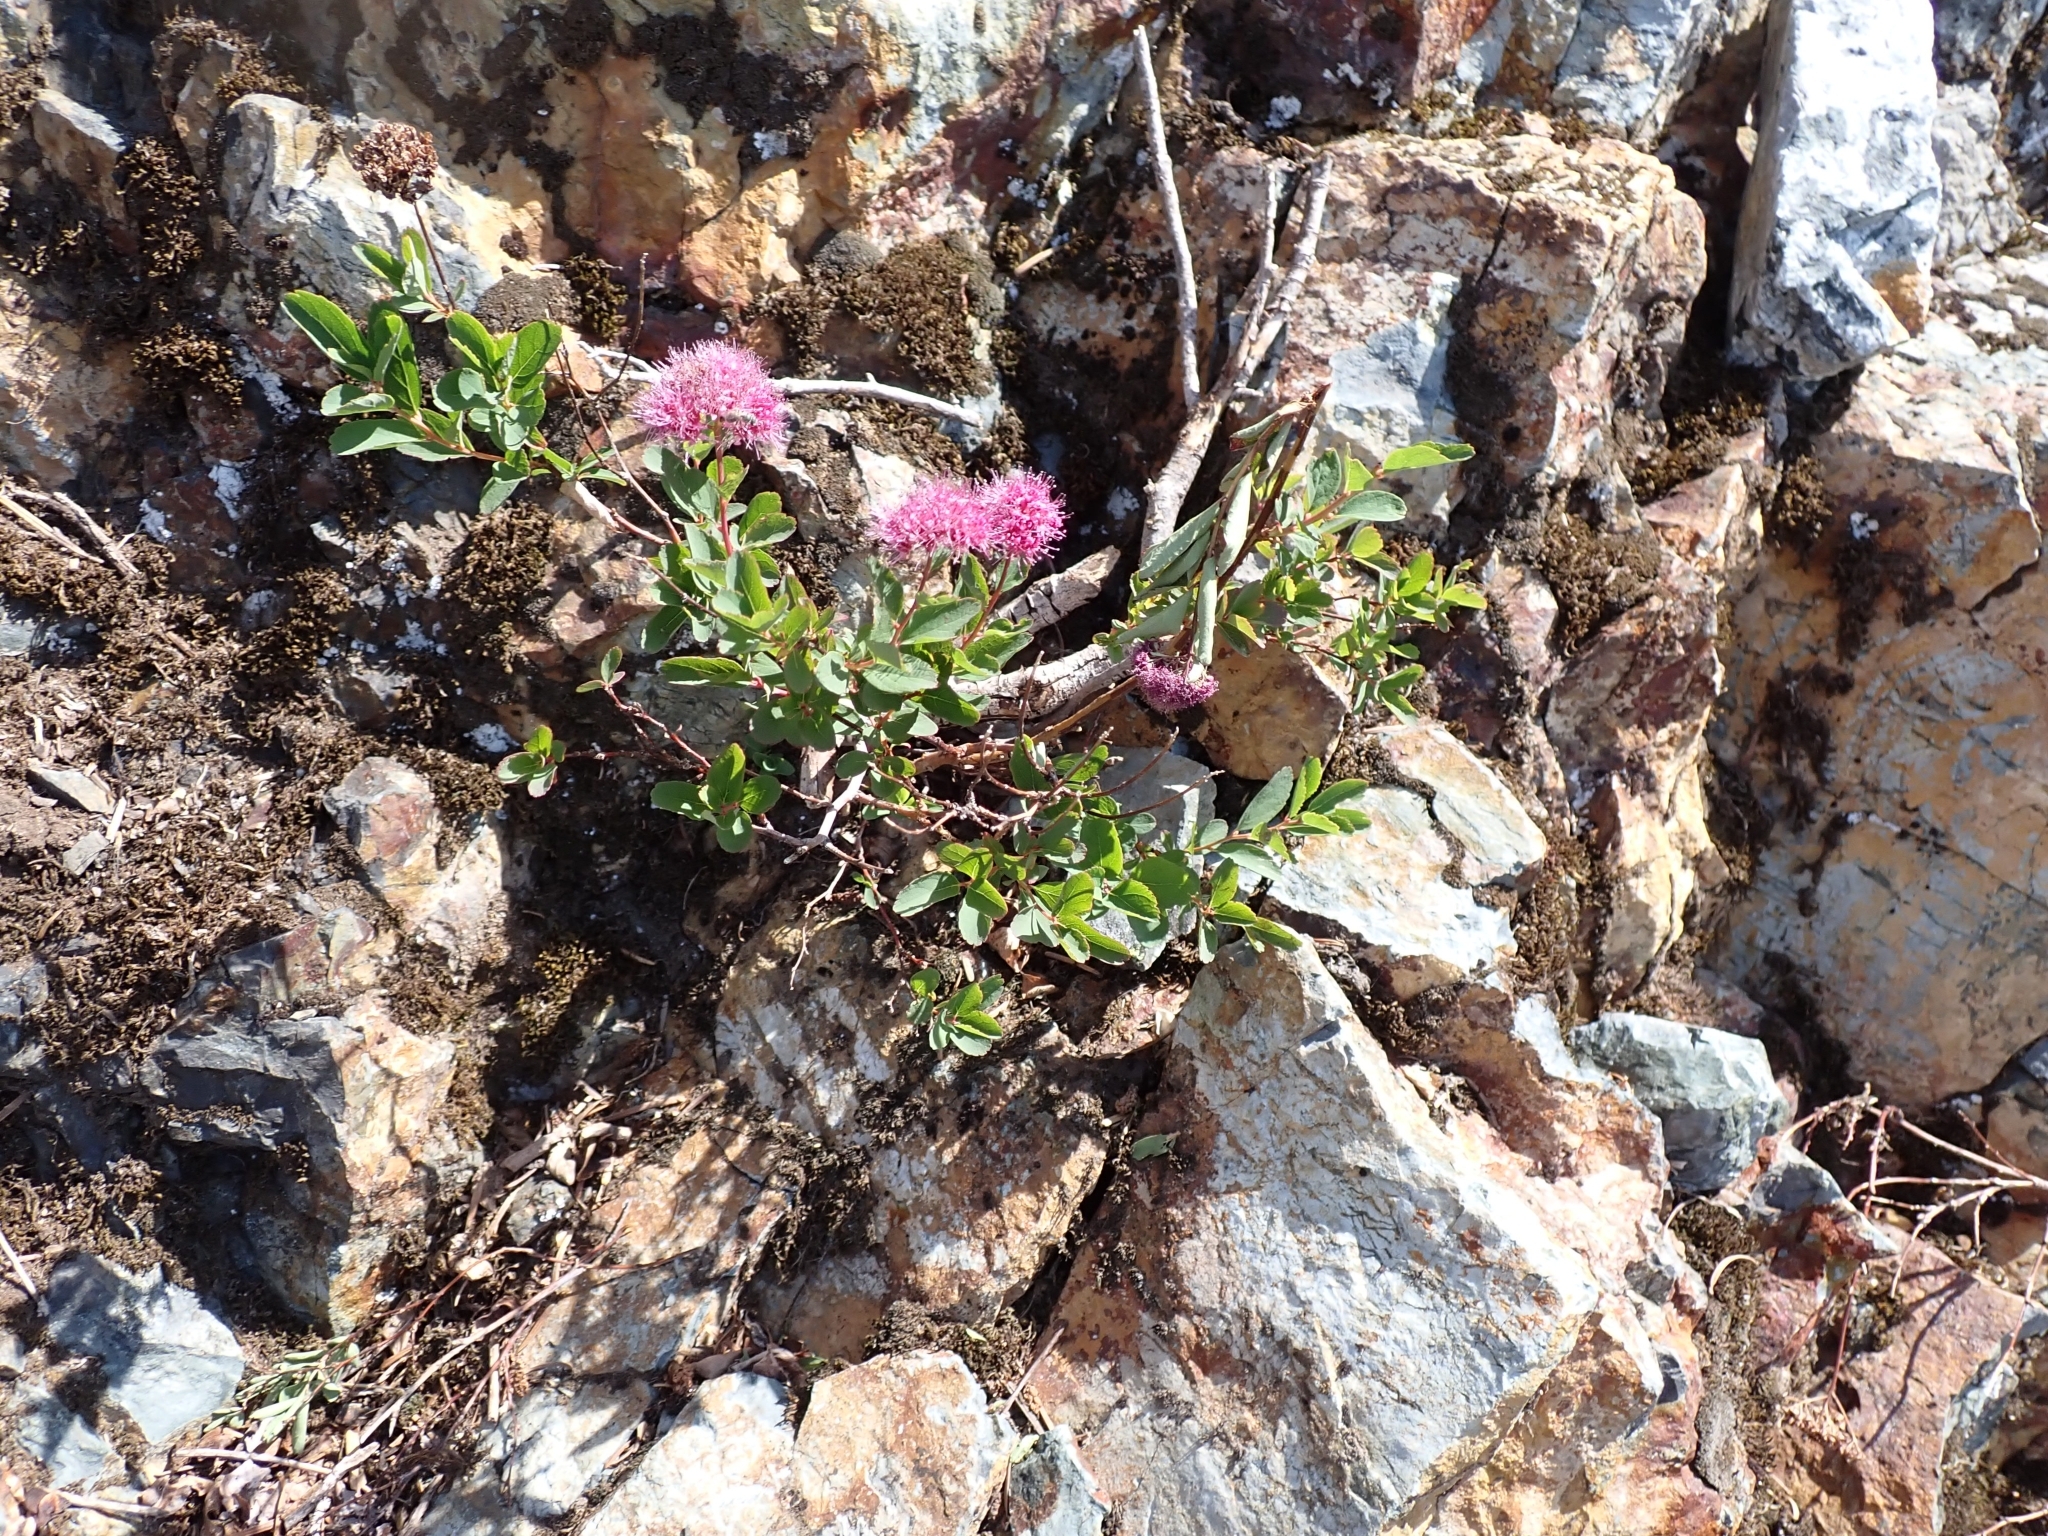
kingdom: Plantae
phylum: Tracheophyta
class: Magnoliopsida
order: Rosales
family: Rosaceae
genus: Spiraea
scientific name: Spiraea splendens
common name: Subalpine meadowsweet
